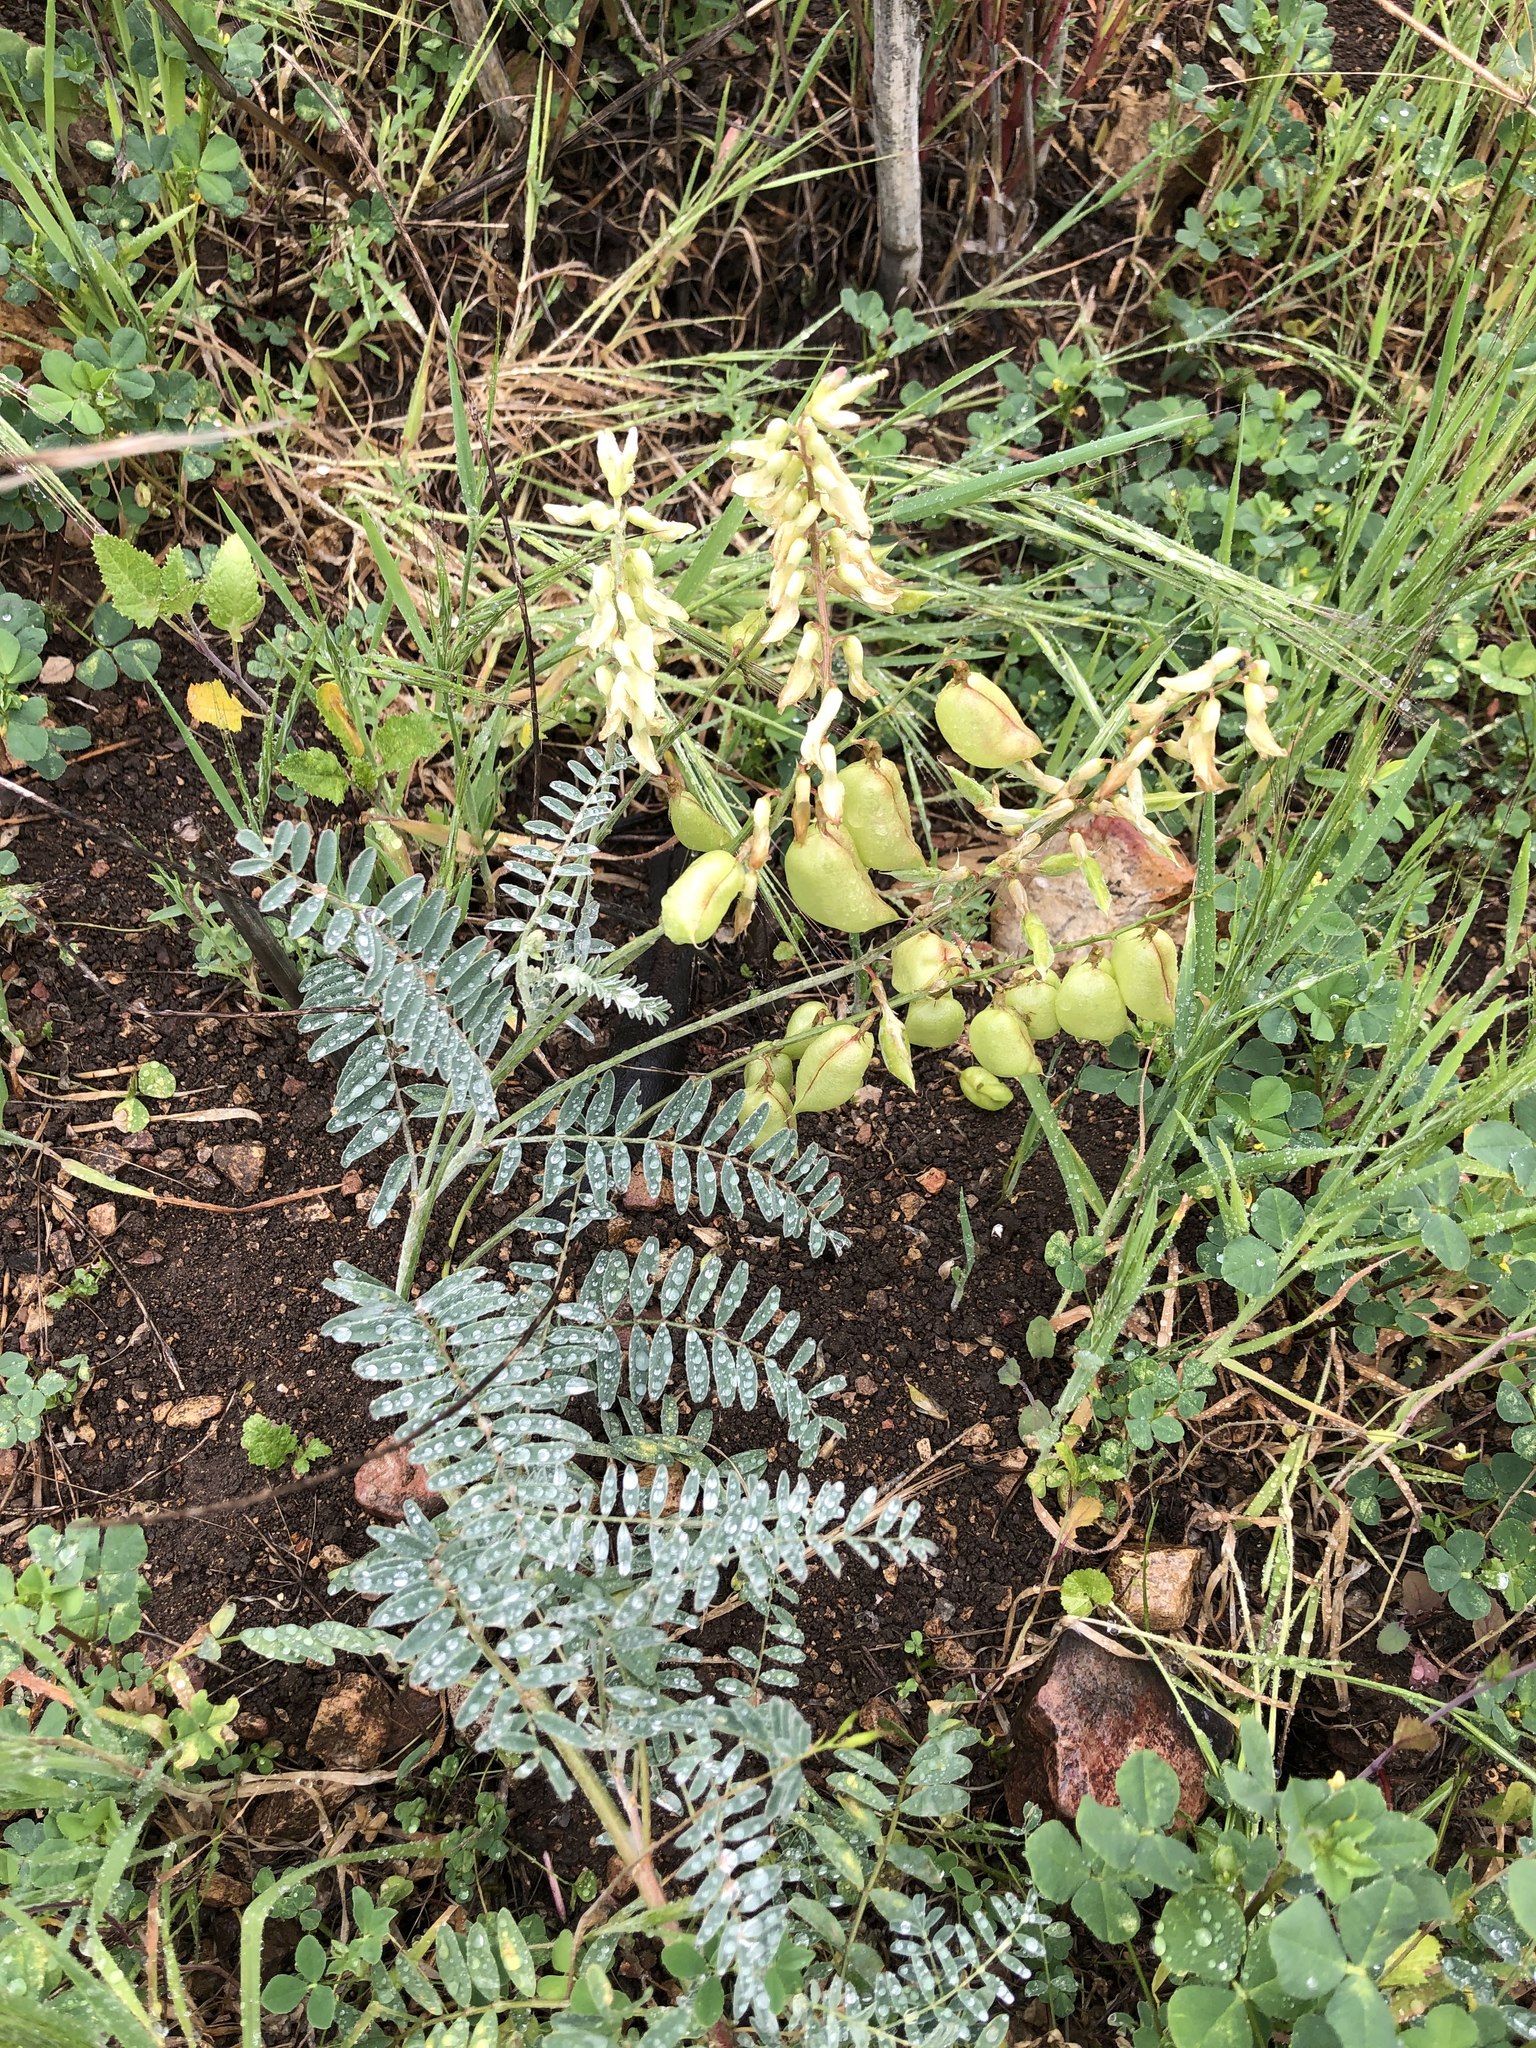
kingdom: Plantae
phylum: Tracheophyta
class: Magnoliopsida
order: Fabales
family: Fabaceae
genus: Astragalus
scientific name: Astragalus trichopodus
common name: Santa barbara milk-vetch
